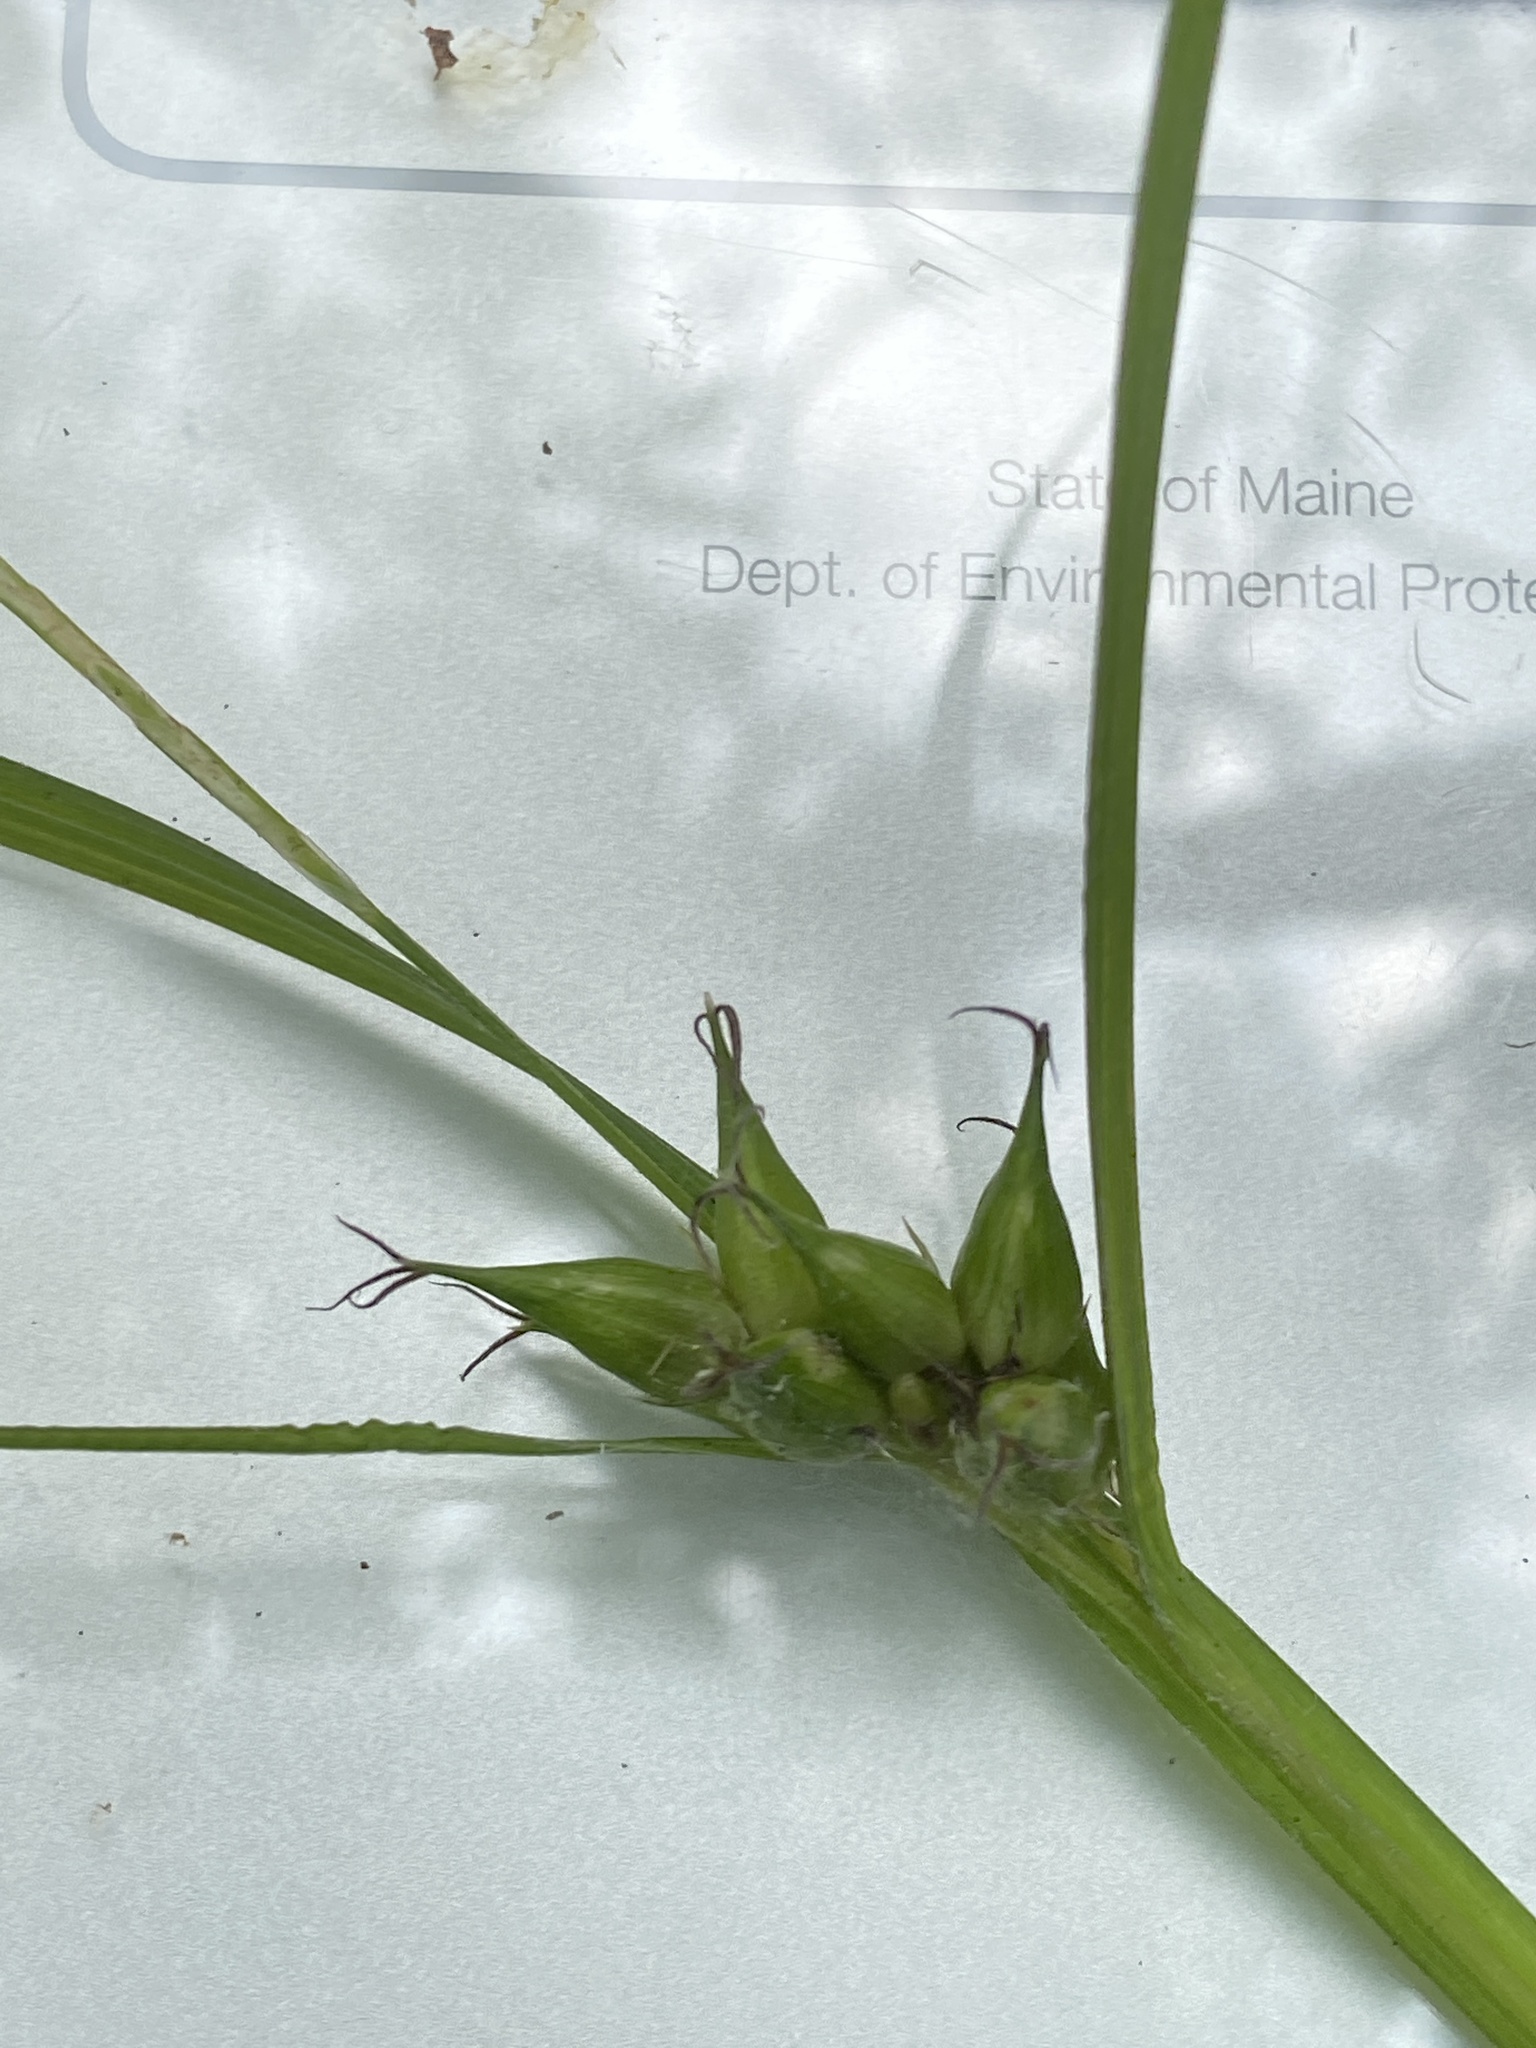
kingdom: Plantae
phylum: Tracheophyta
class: Liliopsida
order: Poales
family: Cyperaceae
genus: Carex
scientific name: Carex intumescens
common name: Greater bladder sedge
